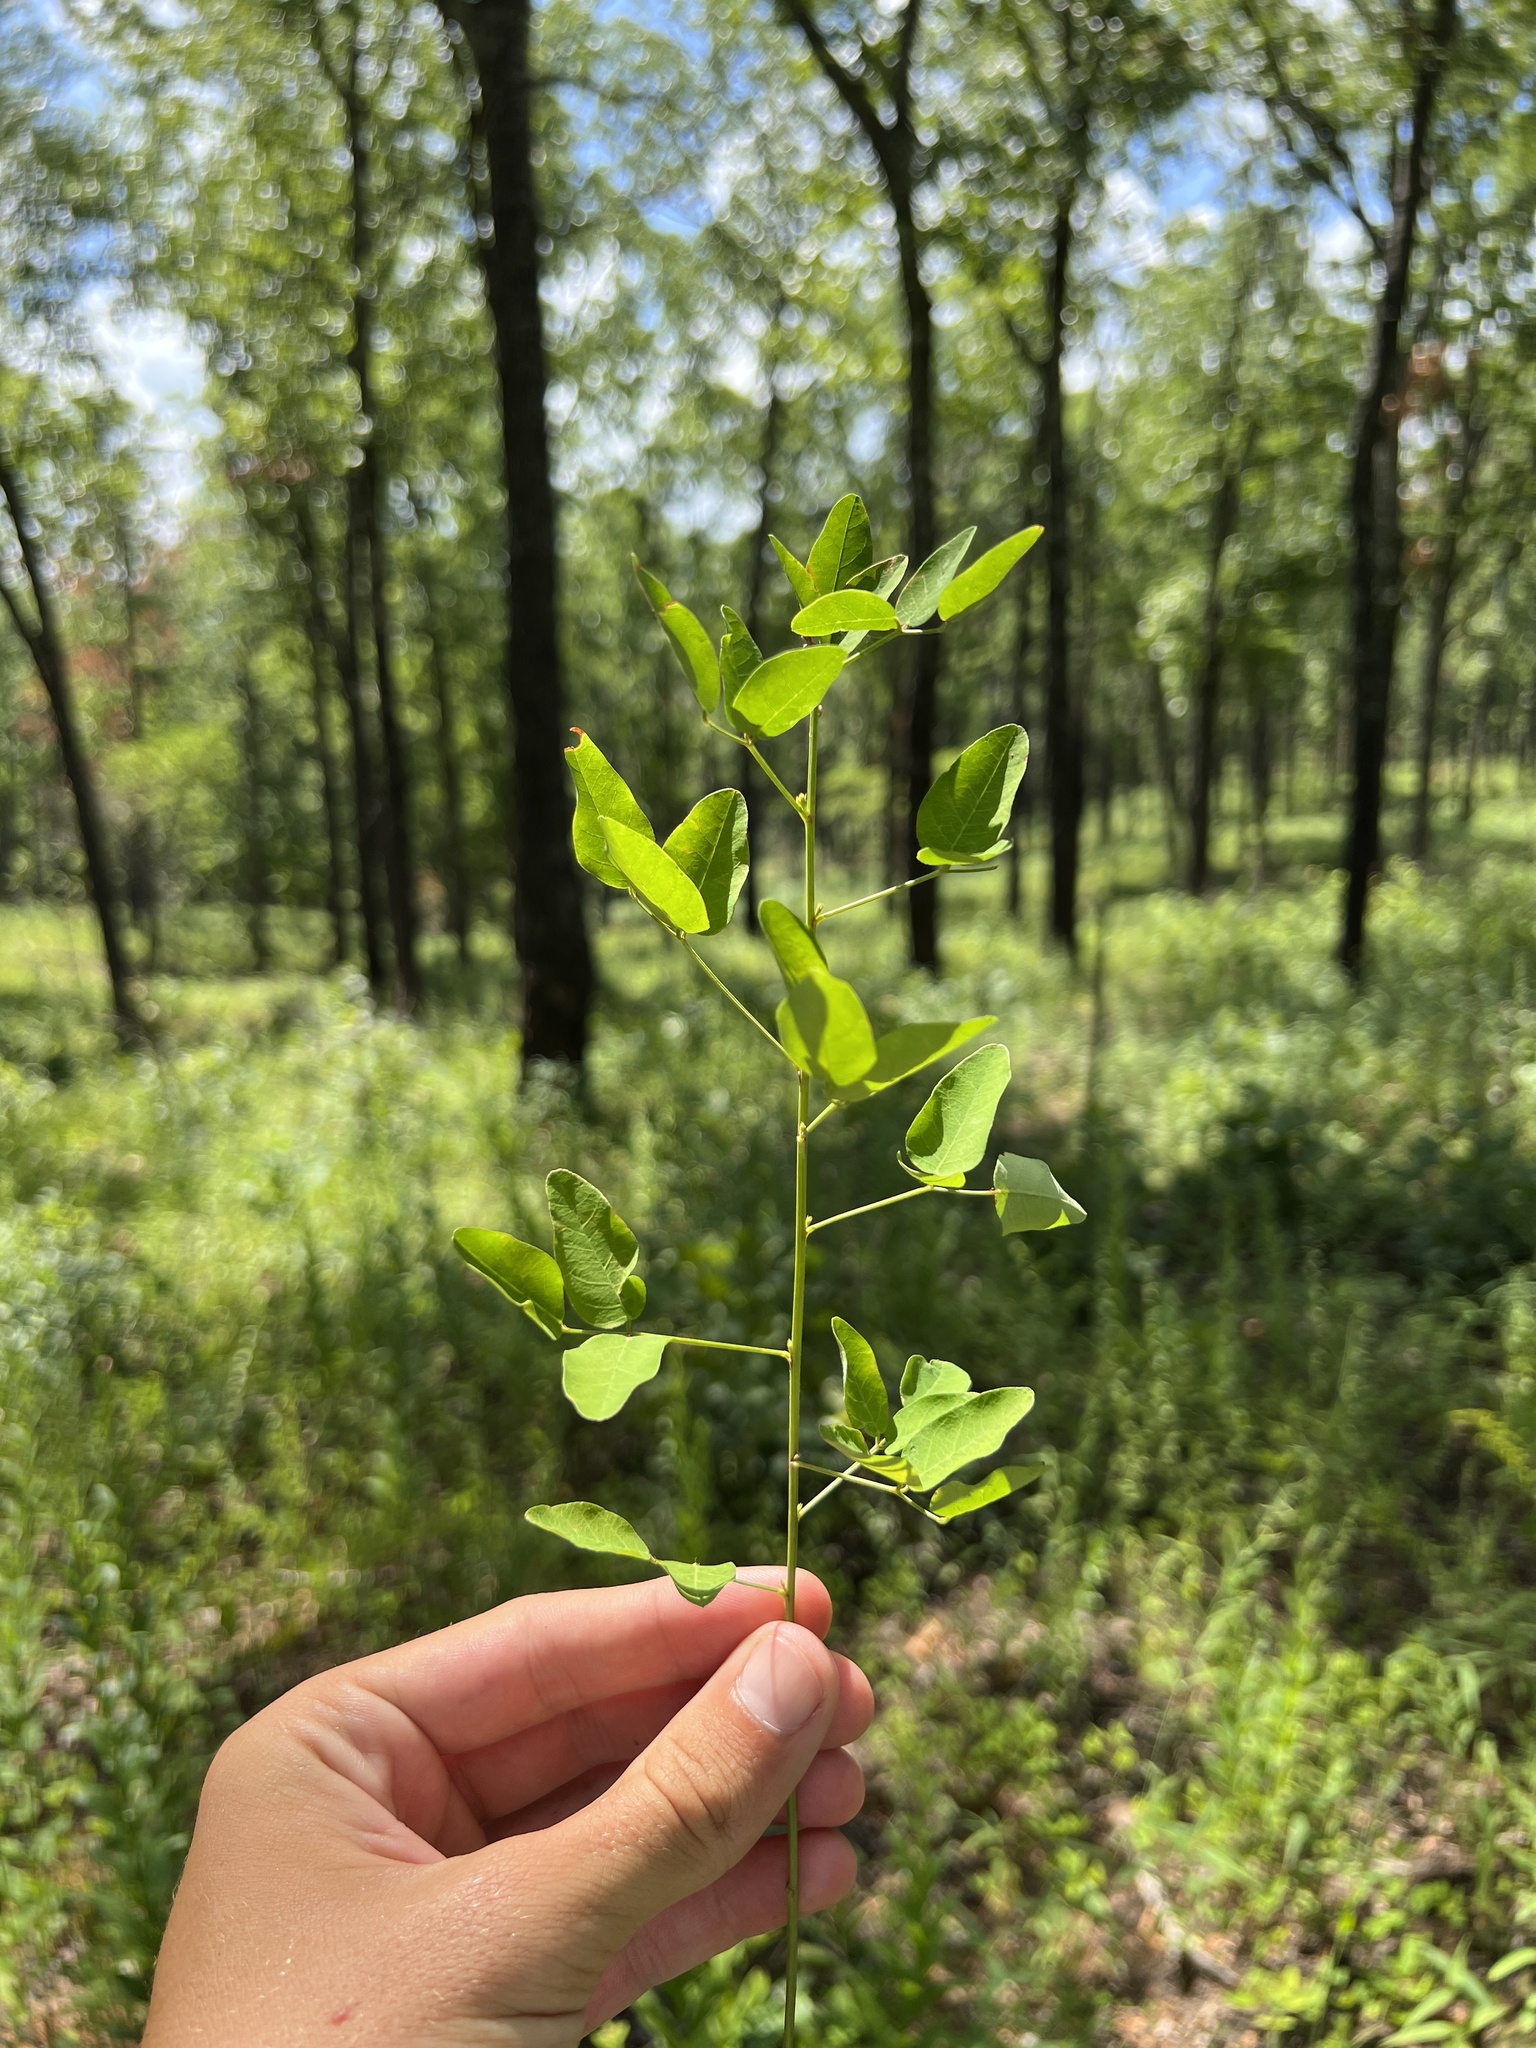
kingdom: Plantae
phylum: Tracheophyta
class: Magnoliopsida
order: Fabales
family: Fabaceae
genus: Lespedeza
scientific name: Lespedeza violacea
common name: Wand bush-clover
